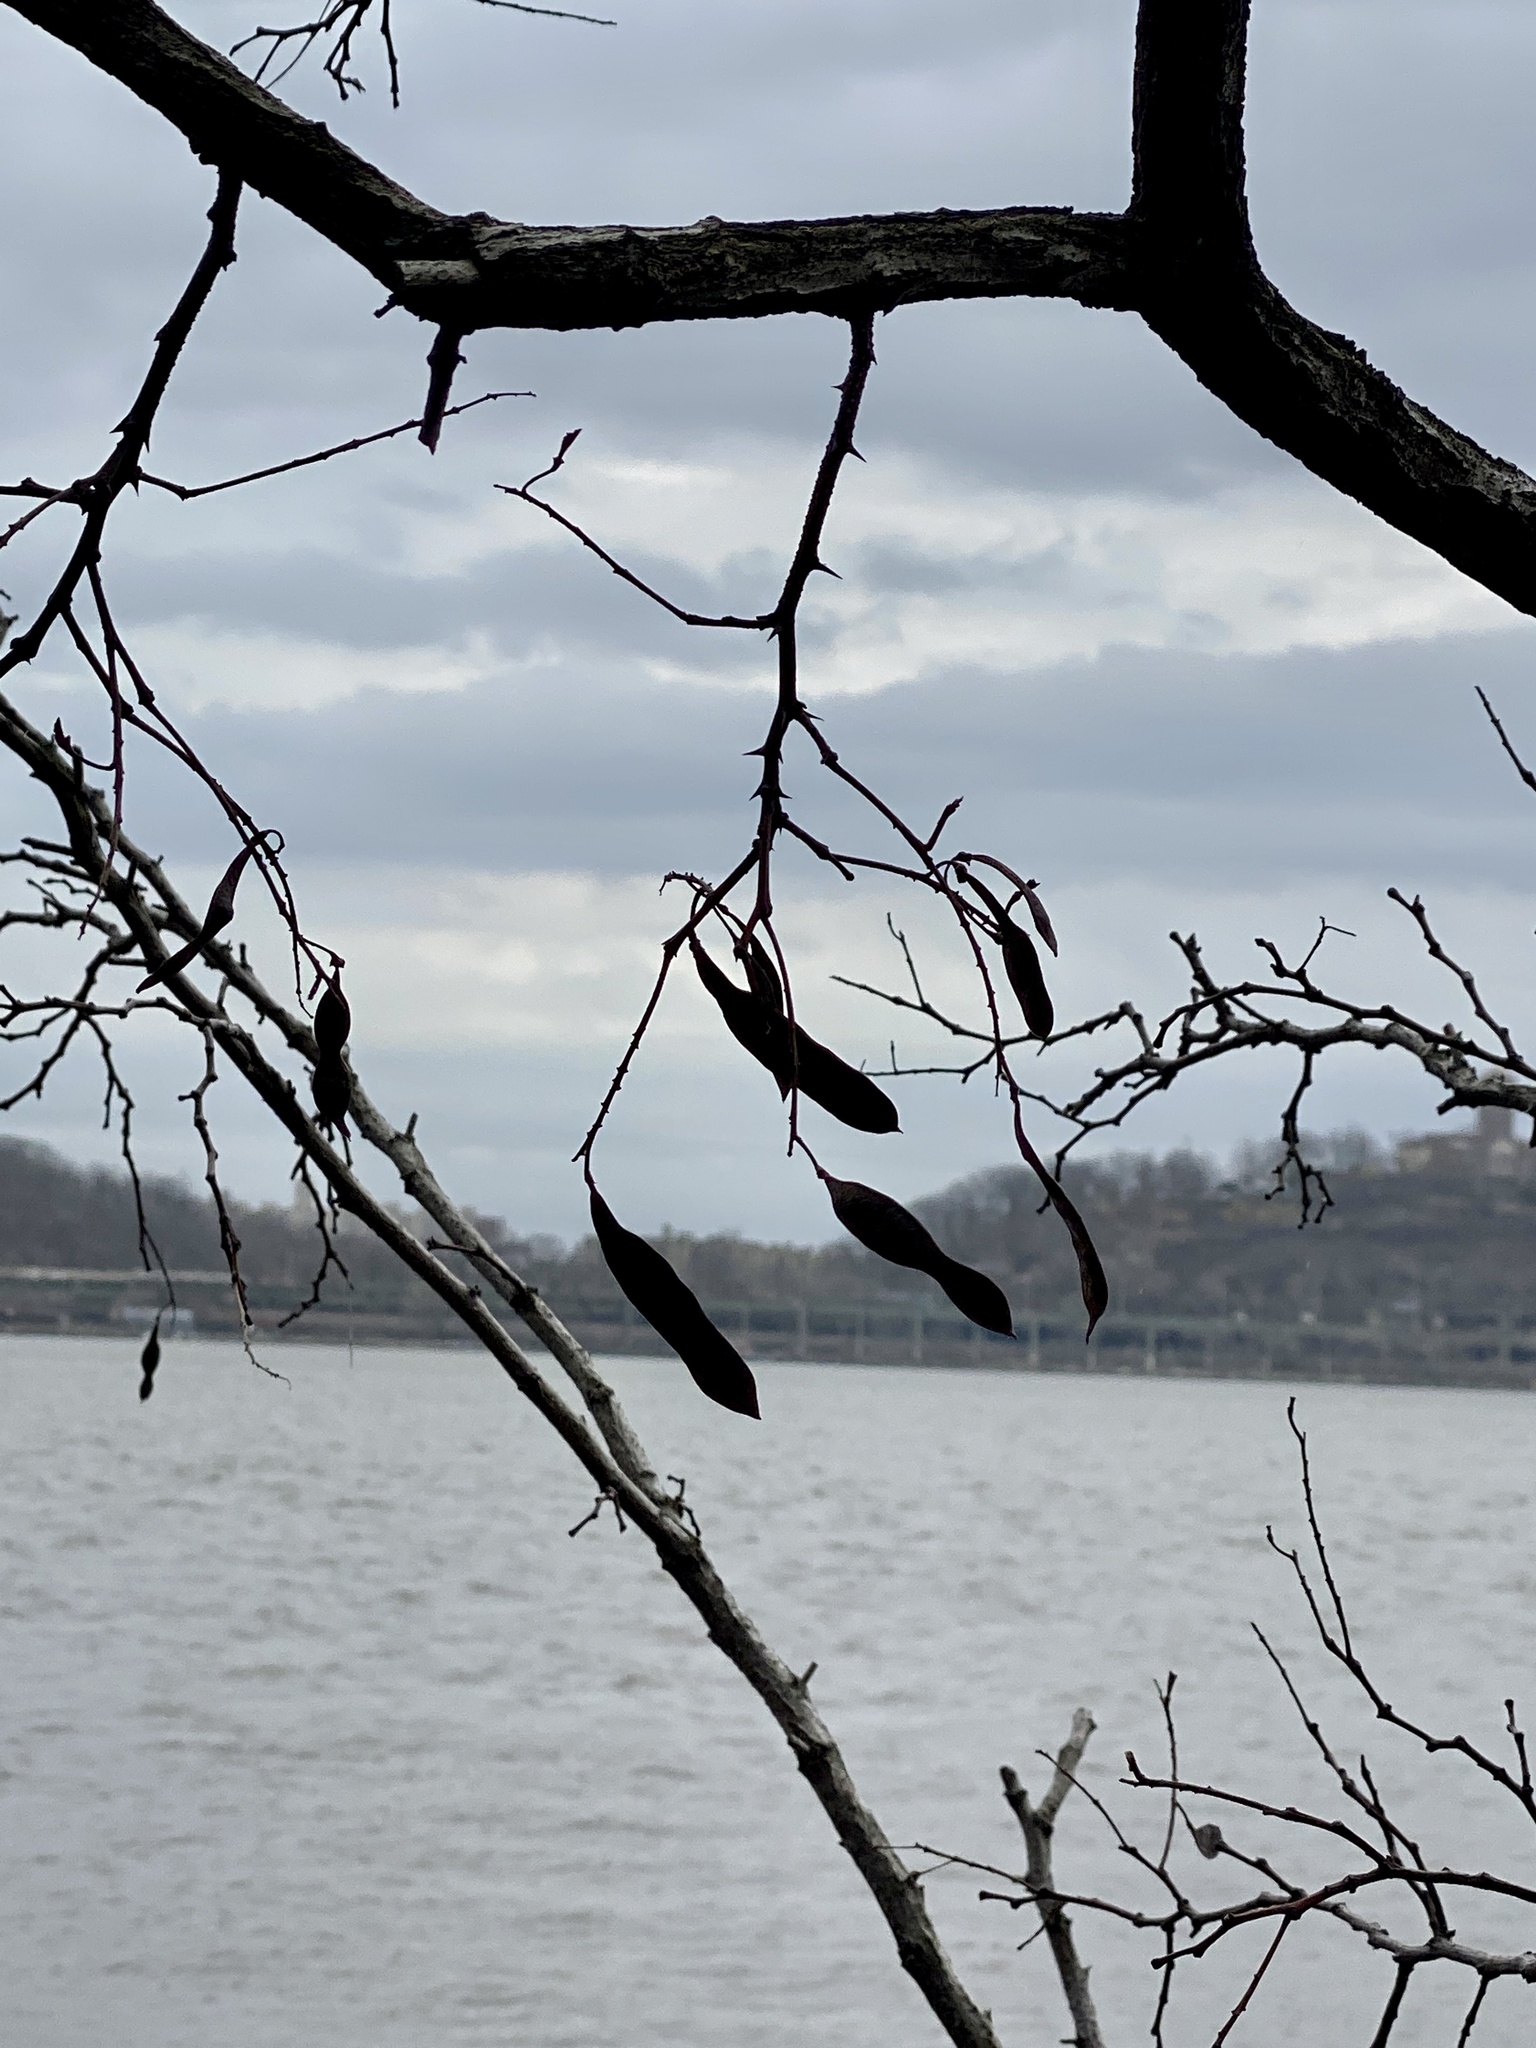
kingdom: Plantae
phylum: Tracheophyta
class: Magnoliopsida
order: Fabales
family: Fabaceae
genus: Robinia
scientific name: Robinia pseudoacacia
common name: Black locust
